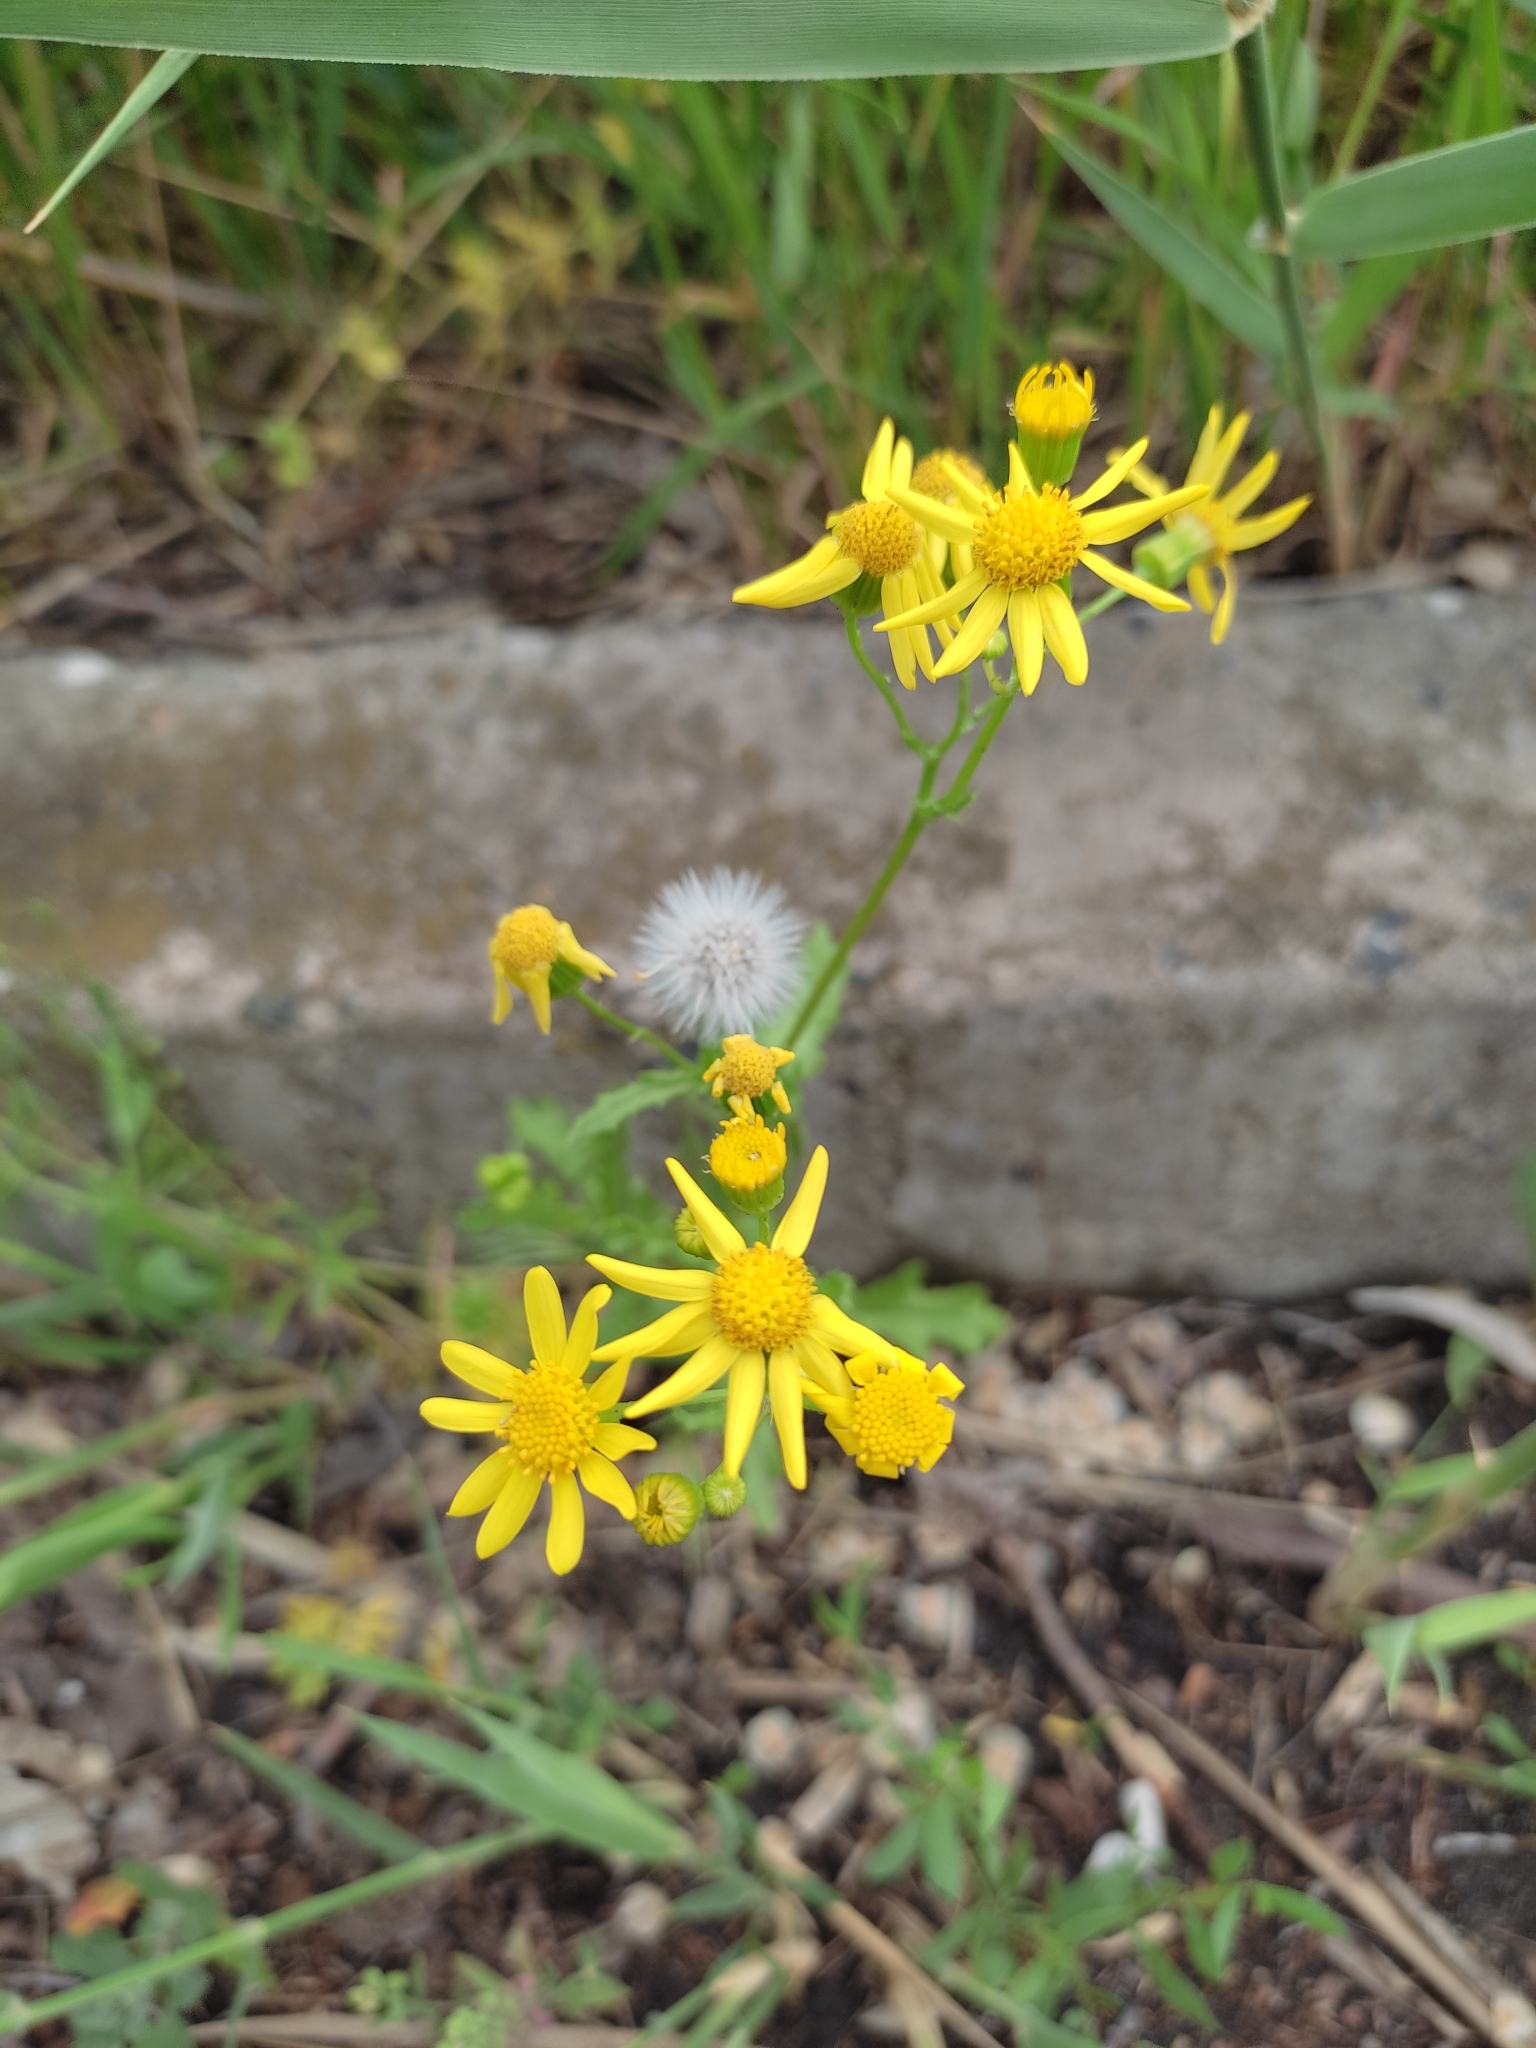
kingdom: Plantae
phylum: Tracheophyta
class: Magnoliopsida
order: Asterales
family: Asteraceae
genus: Senecio
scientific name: Senecio vernalis
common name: Eastern groundsel
